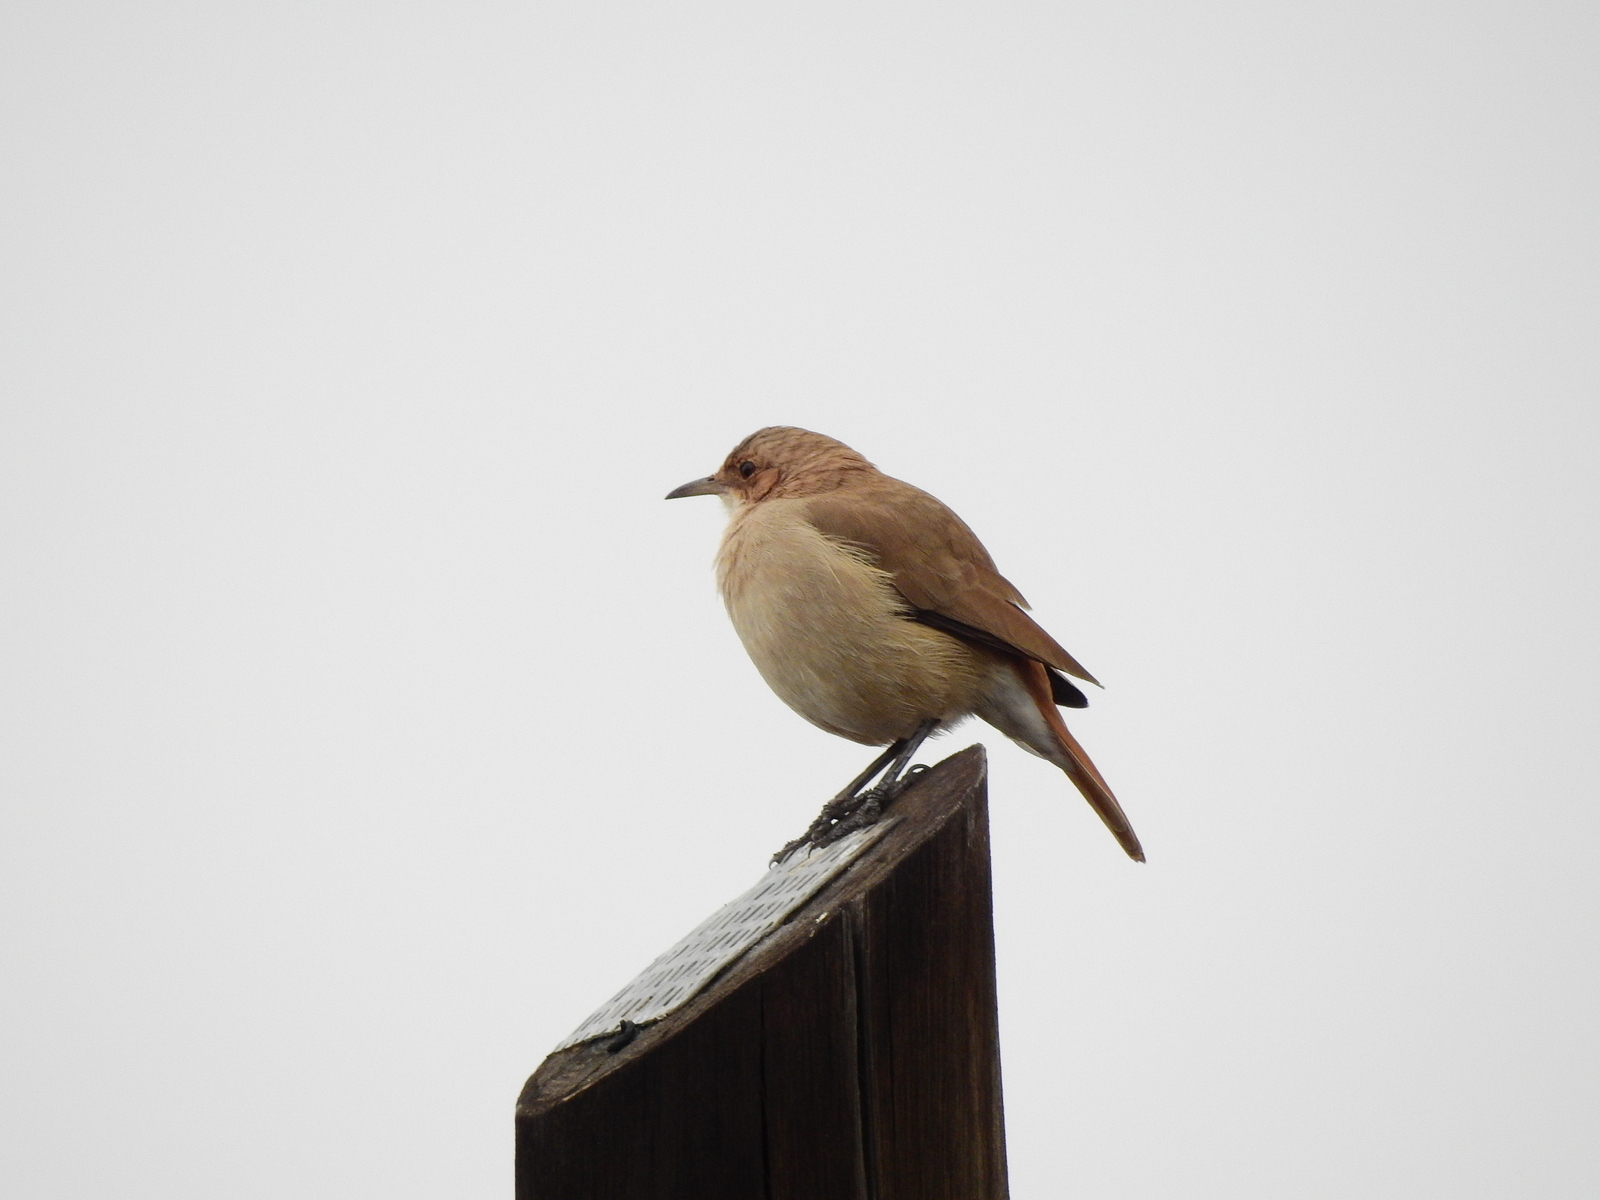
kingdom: Animalia
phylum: Chordata
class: Aves
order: Passeriformes
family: Furnariidae
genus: Furnarius
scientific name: Furnarius rufus
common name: Rufous hornero
